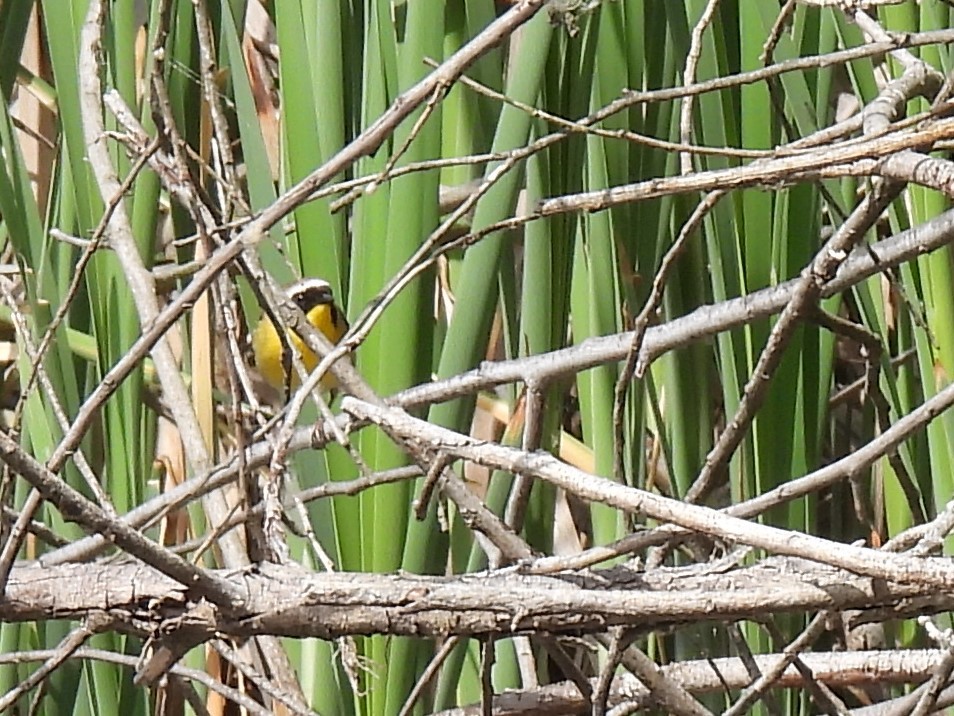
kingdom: Animalia
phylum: Chordata
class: Aves
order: Passeriformes
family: Parulidae
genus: Geothlypis
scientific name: Geothlypis trichas
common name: Common yellowthroat
